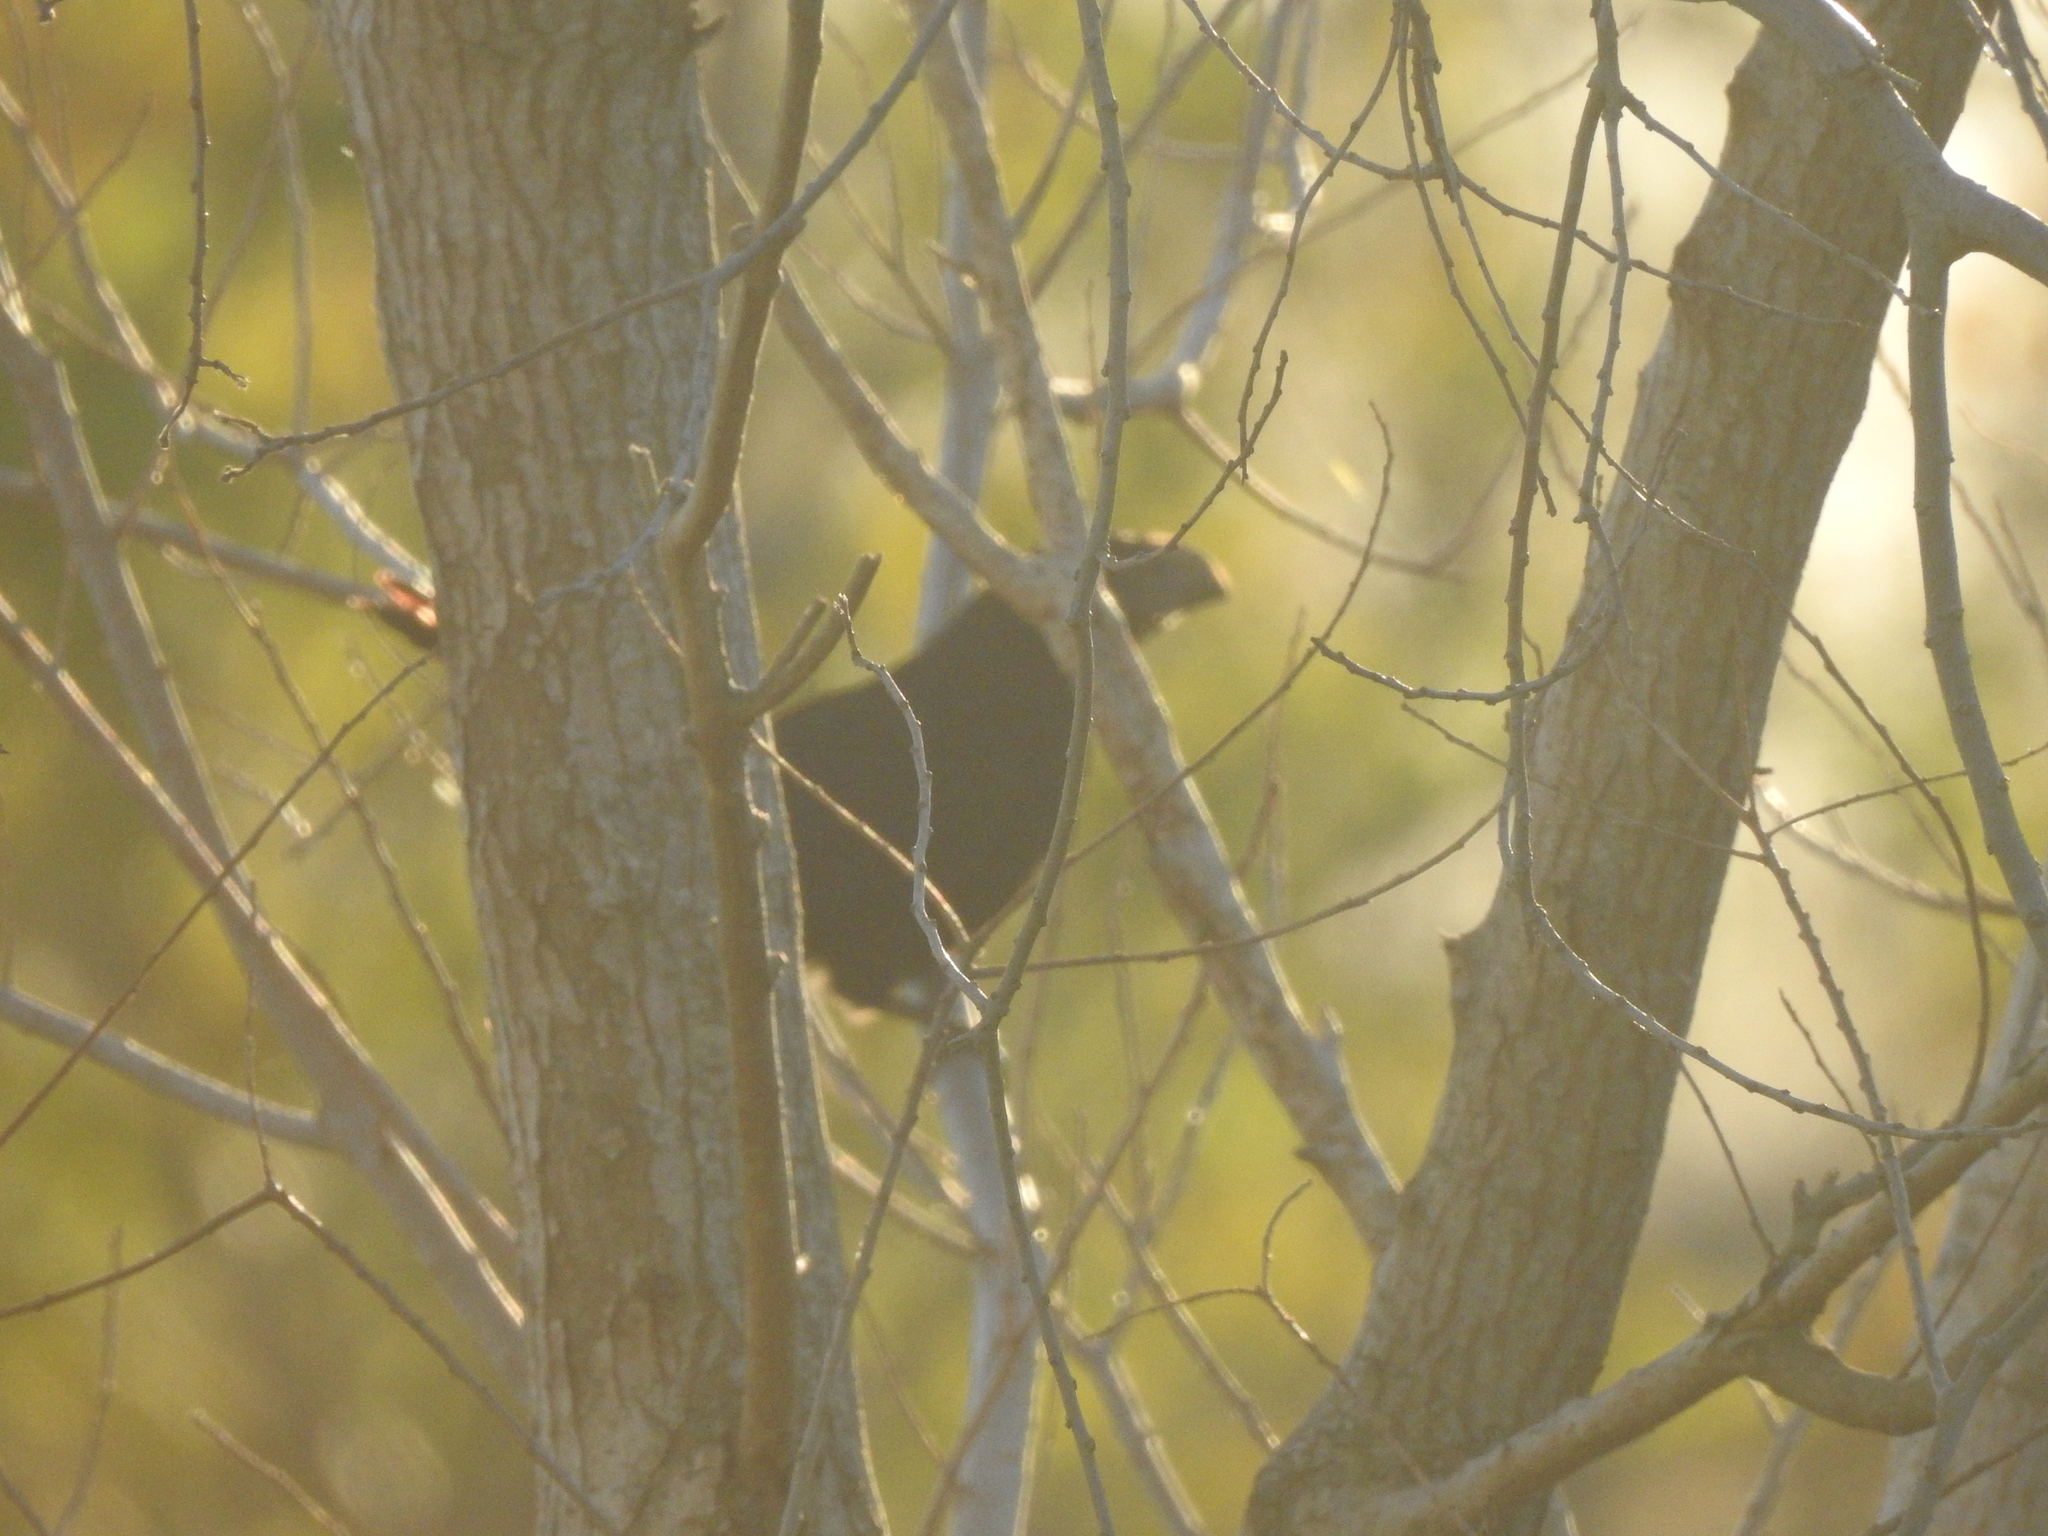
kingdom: Animalia
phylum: Chordata
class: Aves
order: Cuculiformes
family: Cuculidae
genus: Crotophaga
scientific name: Crotophaga sulcirostris
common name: Groove-billed ani
